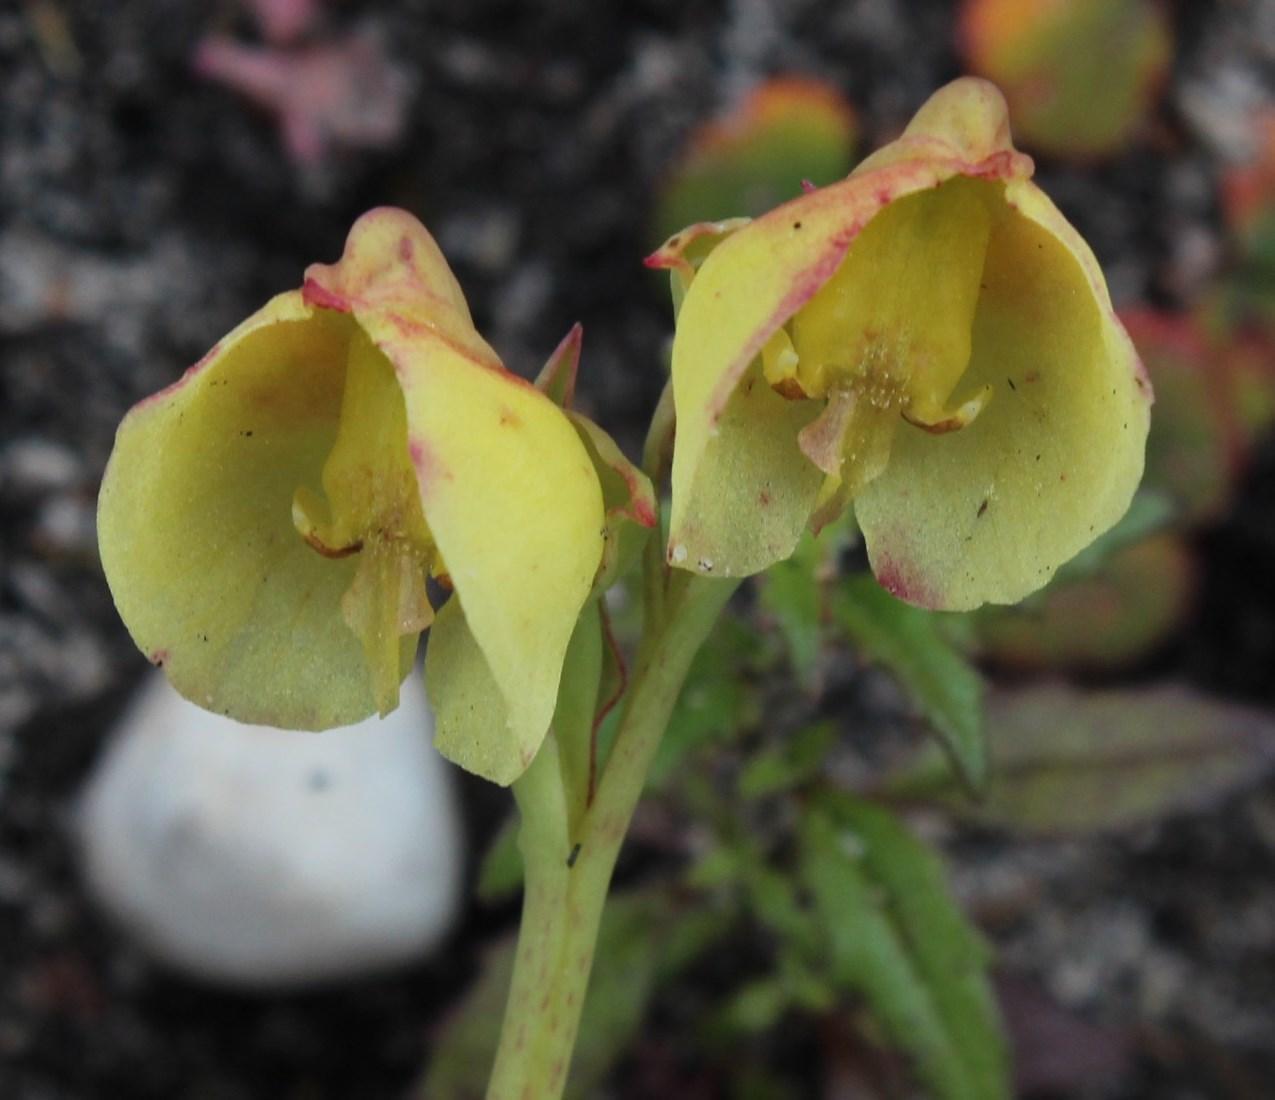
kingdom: Plantae
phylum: Tracheophyta
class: Liliopsida
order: Asparagales
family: Orchidaceae
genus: Pterygodium
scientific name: Pterygodium catholicum
